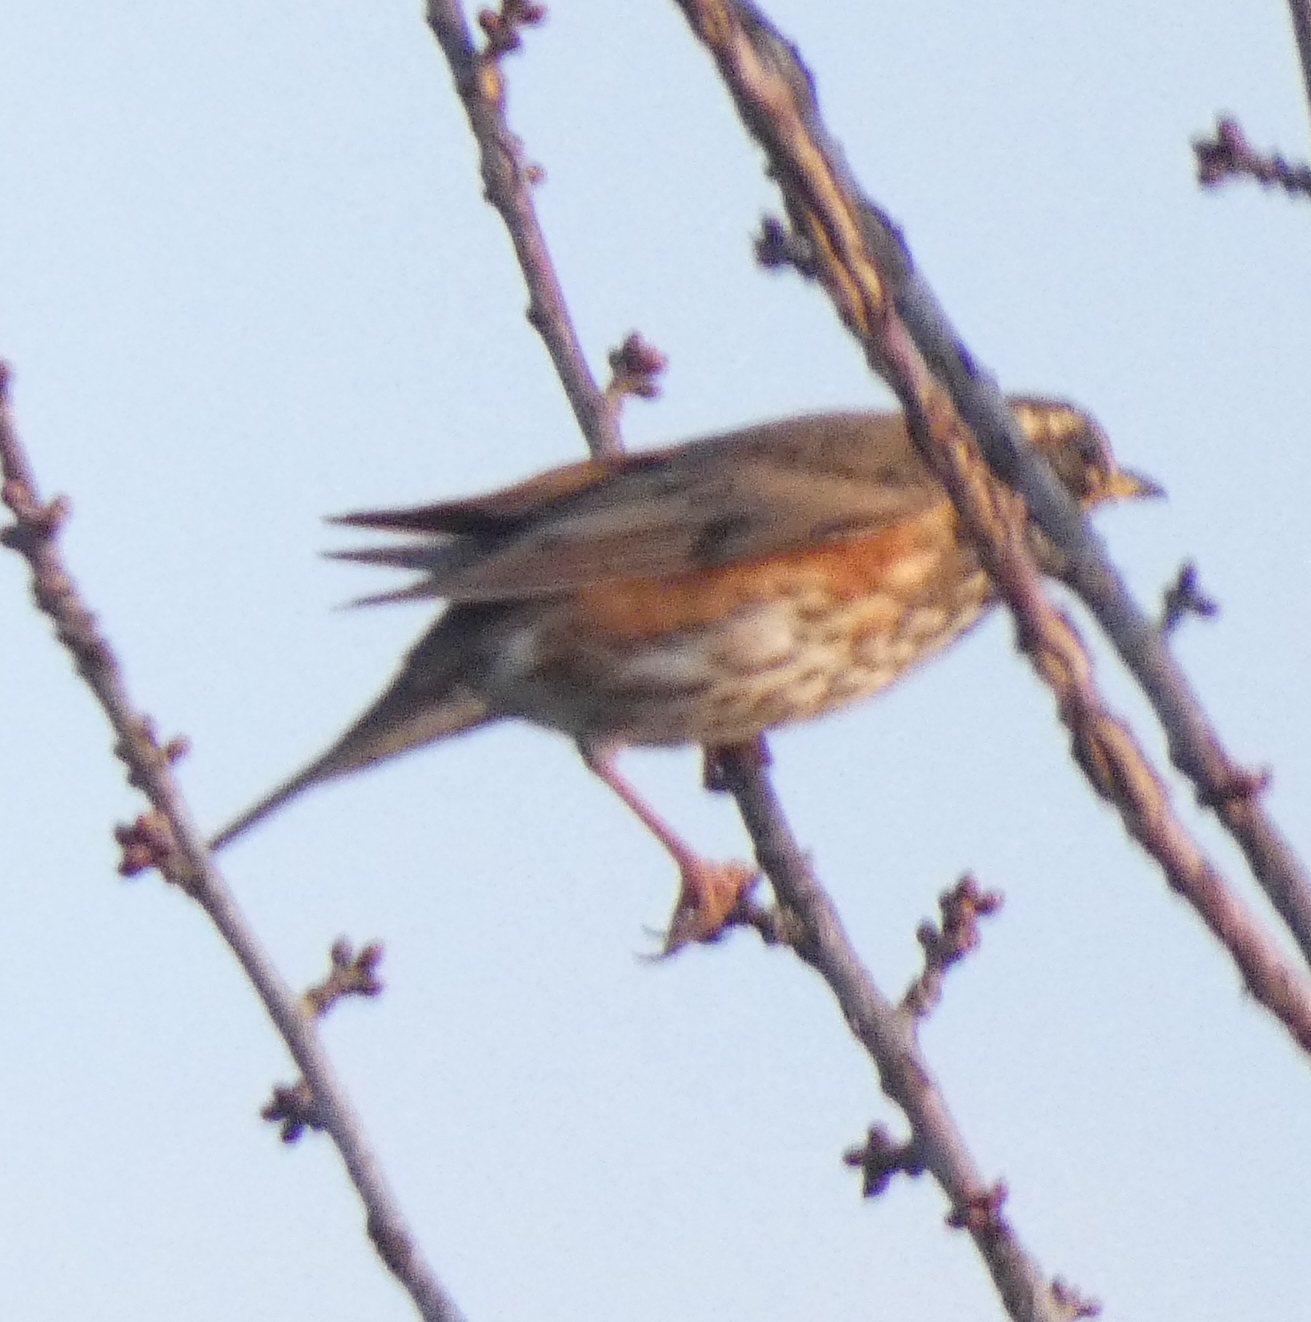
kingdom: Animalia
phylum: Chordata
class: Aves
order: Passeriformes
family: Turdidae
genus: Turdus
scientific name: Turdus iliacus
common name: Redwing
